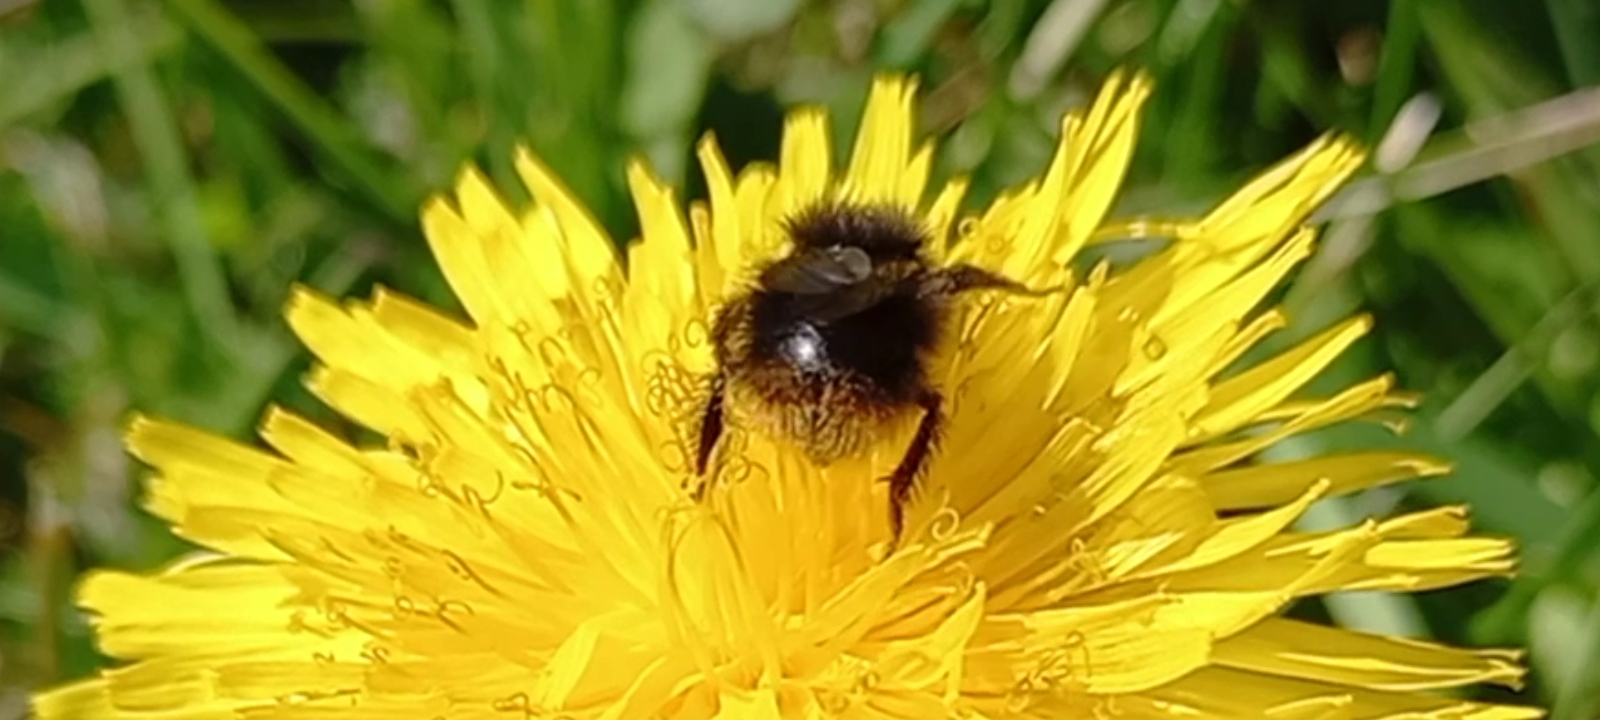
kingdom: Animalia
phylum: Arthropoda
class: Insecta
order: Hymenoptera
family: Apidae
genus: Bombus
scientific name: Bombus pratorum
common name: Early humble-bee
